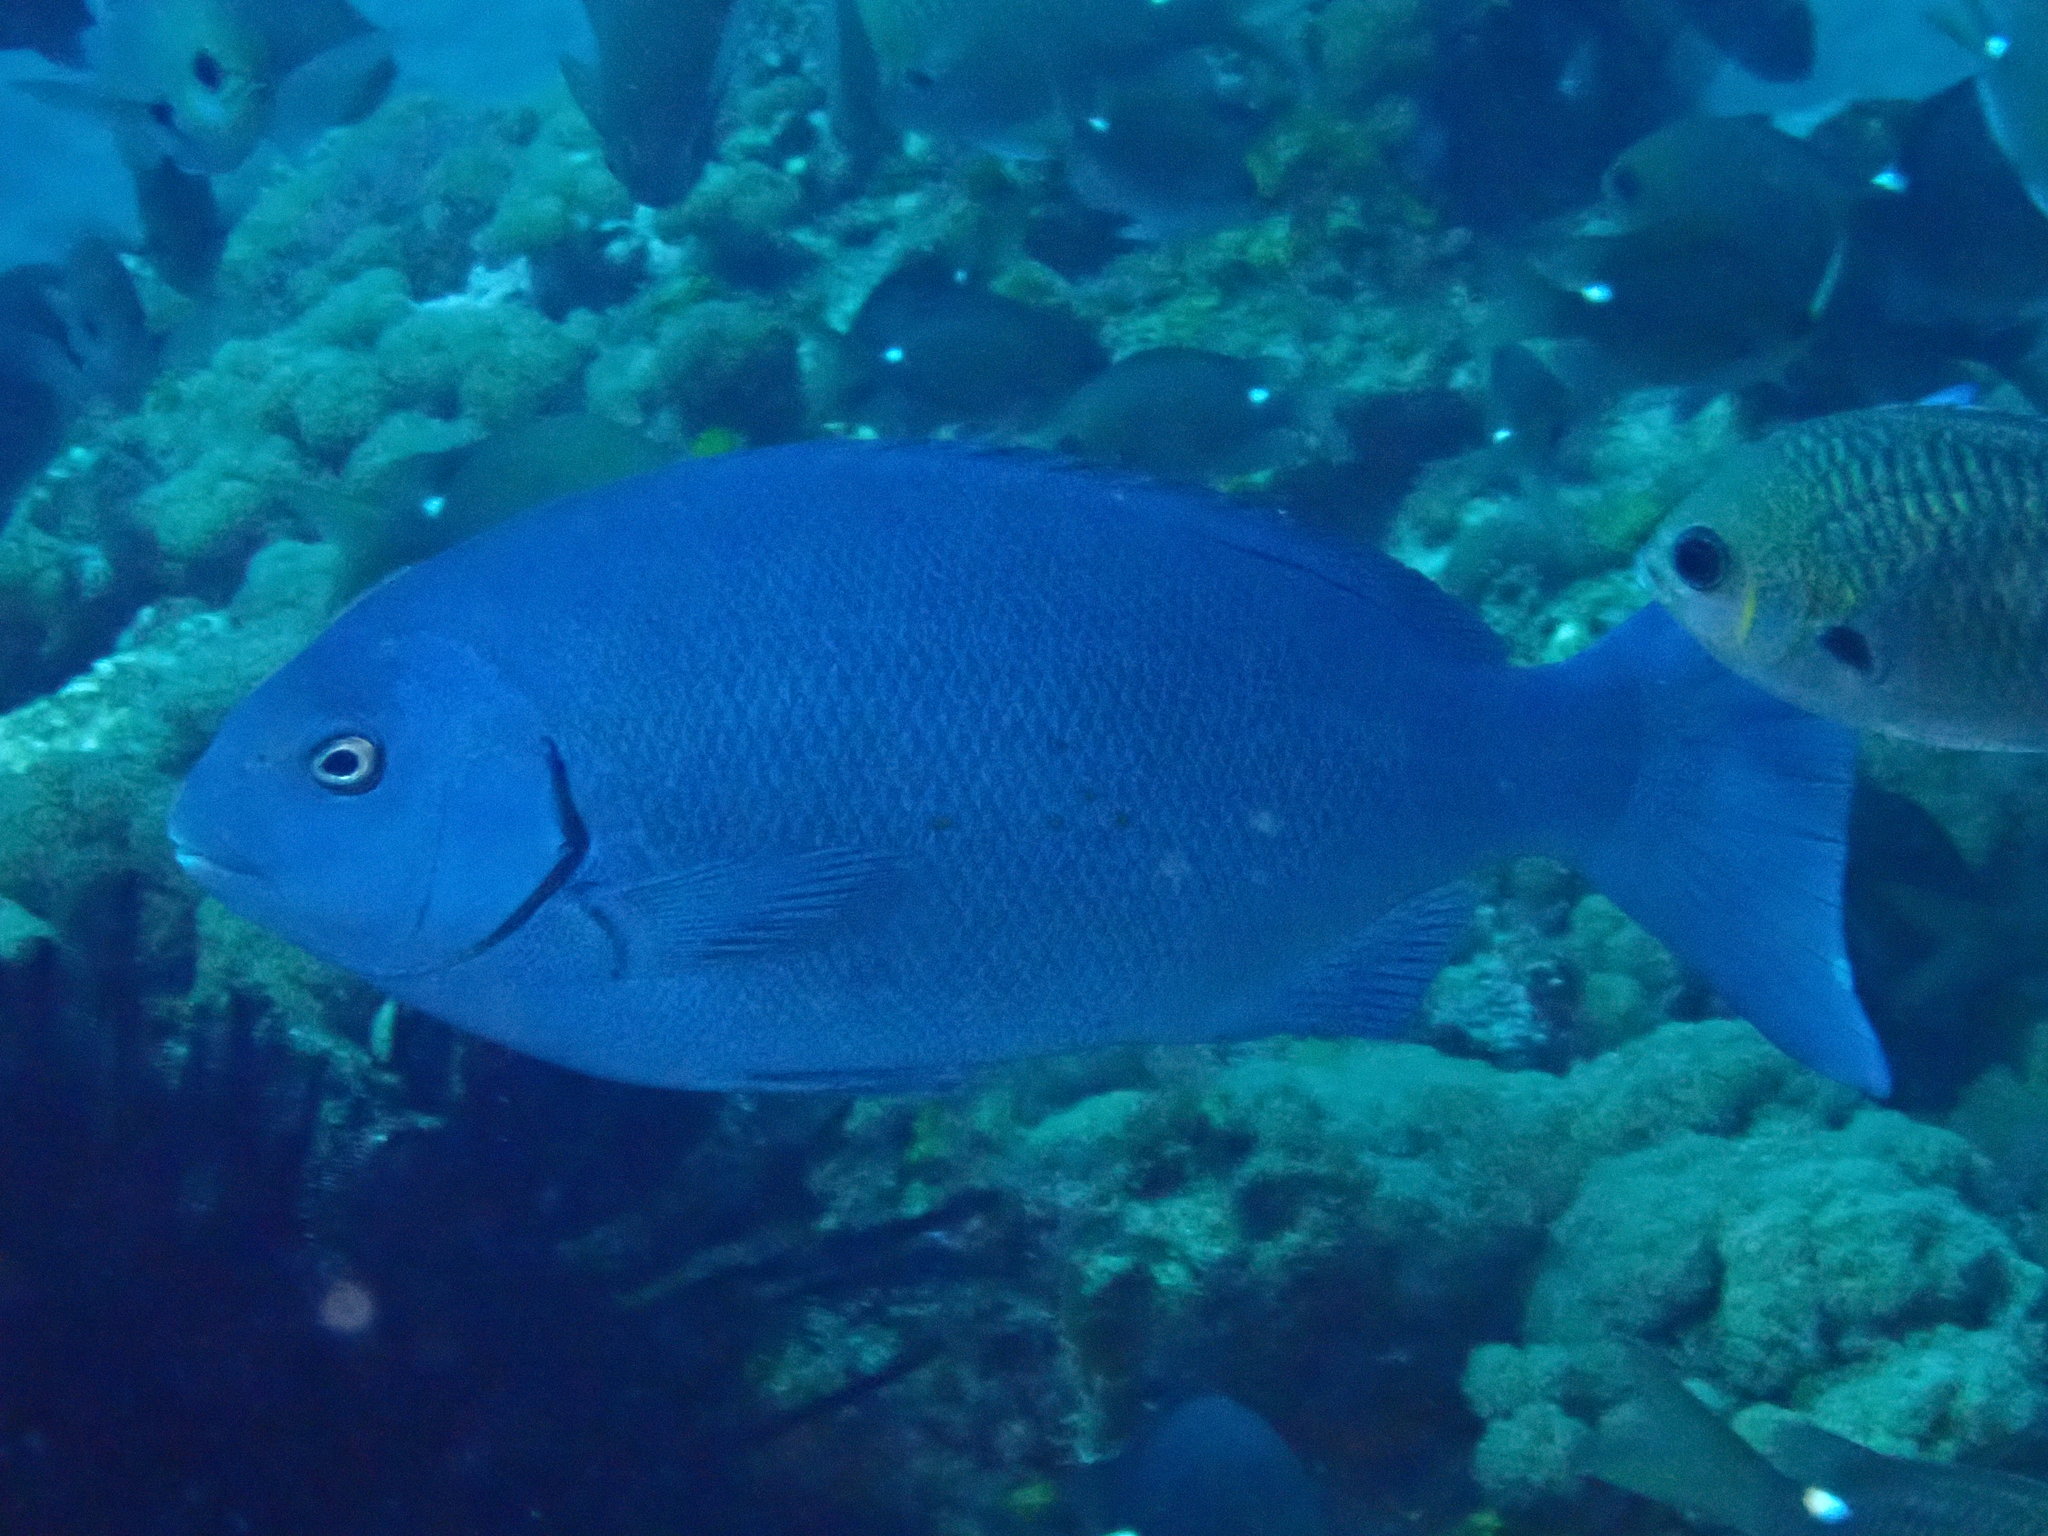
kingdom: Animalia
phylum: Chordata
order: Perciformes
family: Kyphosidae
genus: Girella
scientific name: Girella cyanea
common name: Bluefish
